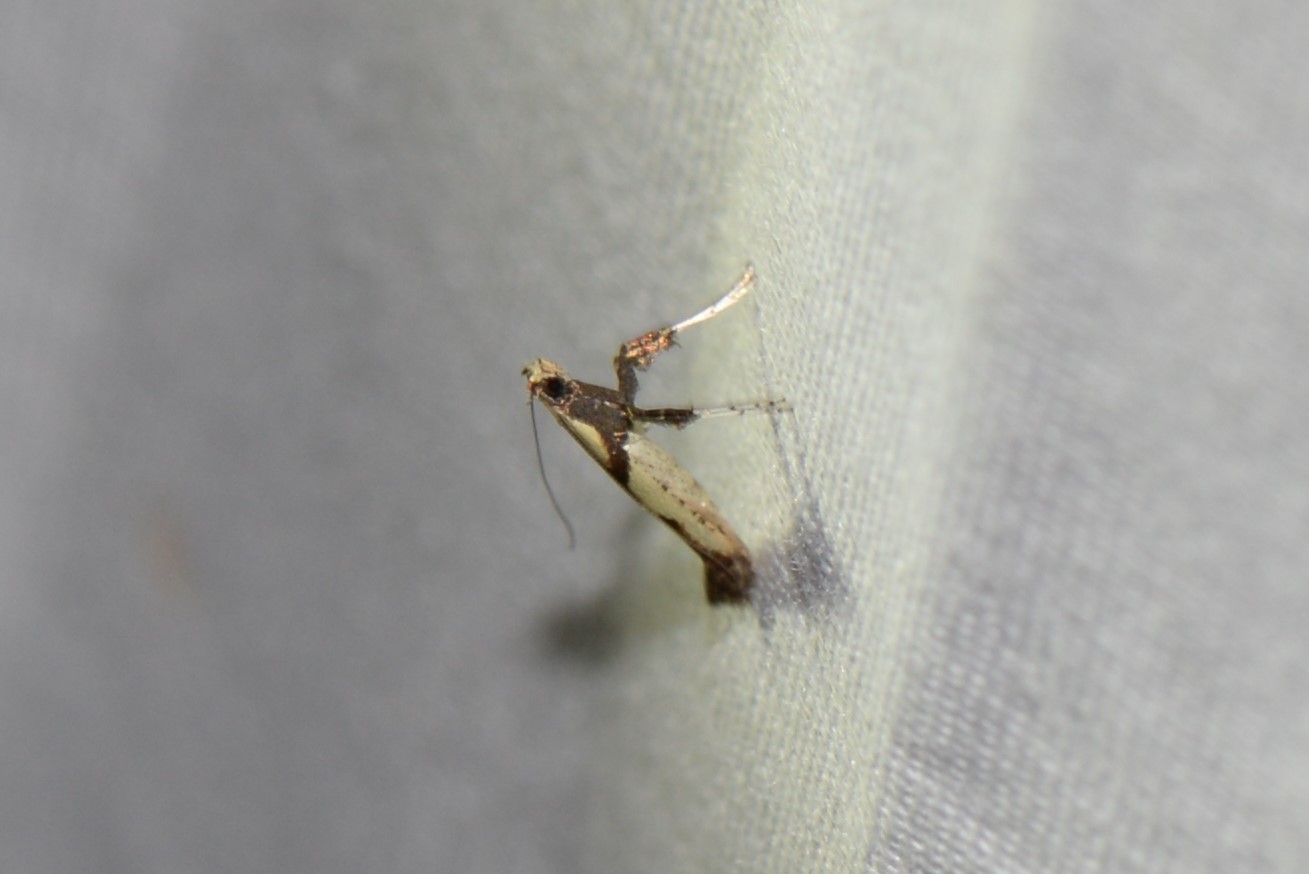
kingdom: Animalia
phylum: Arthropoda
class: Insecta
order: Lepidoptera
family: Gracillariidae
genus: Caloptilia
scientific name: Caloptilia blandella
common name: Walnut caloptilia moth
